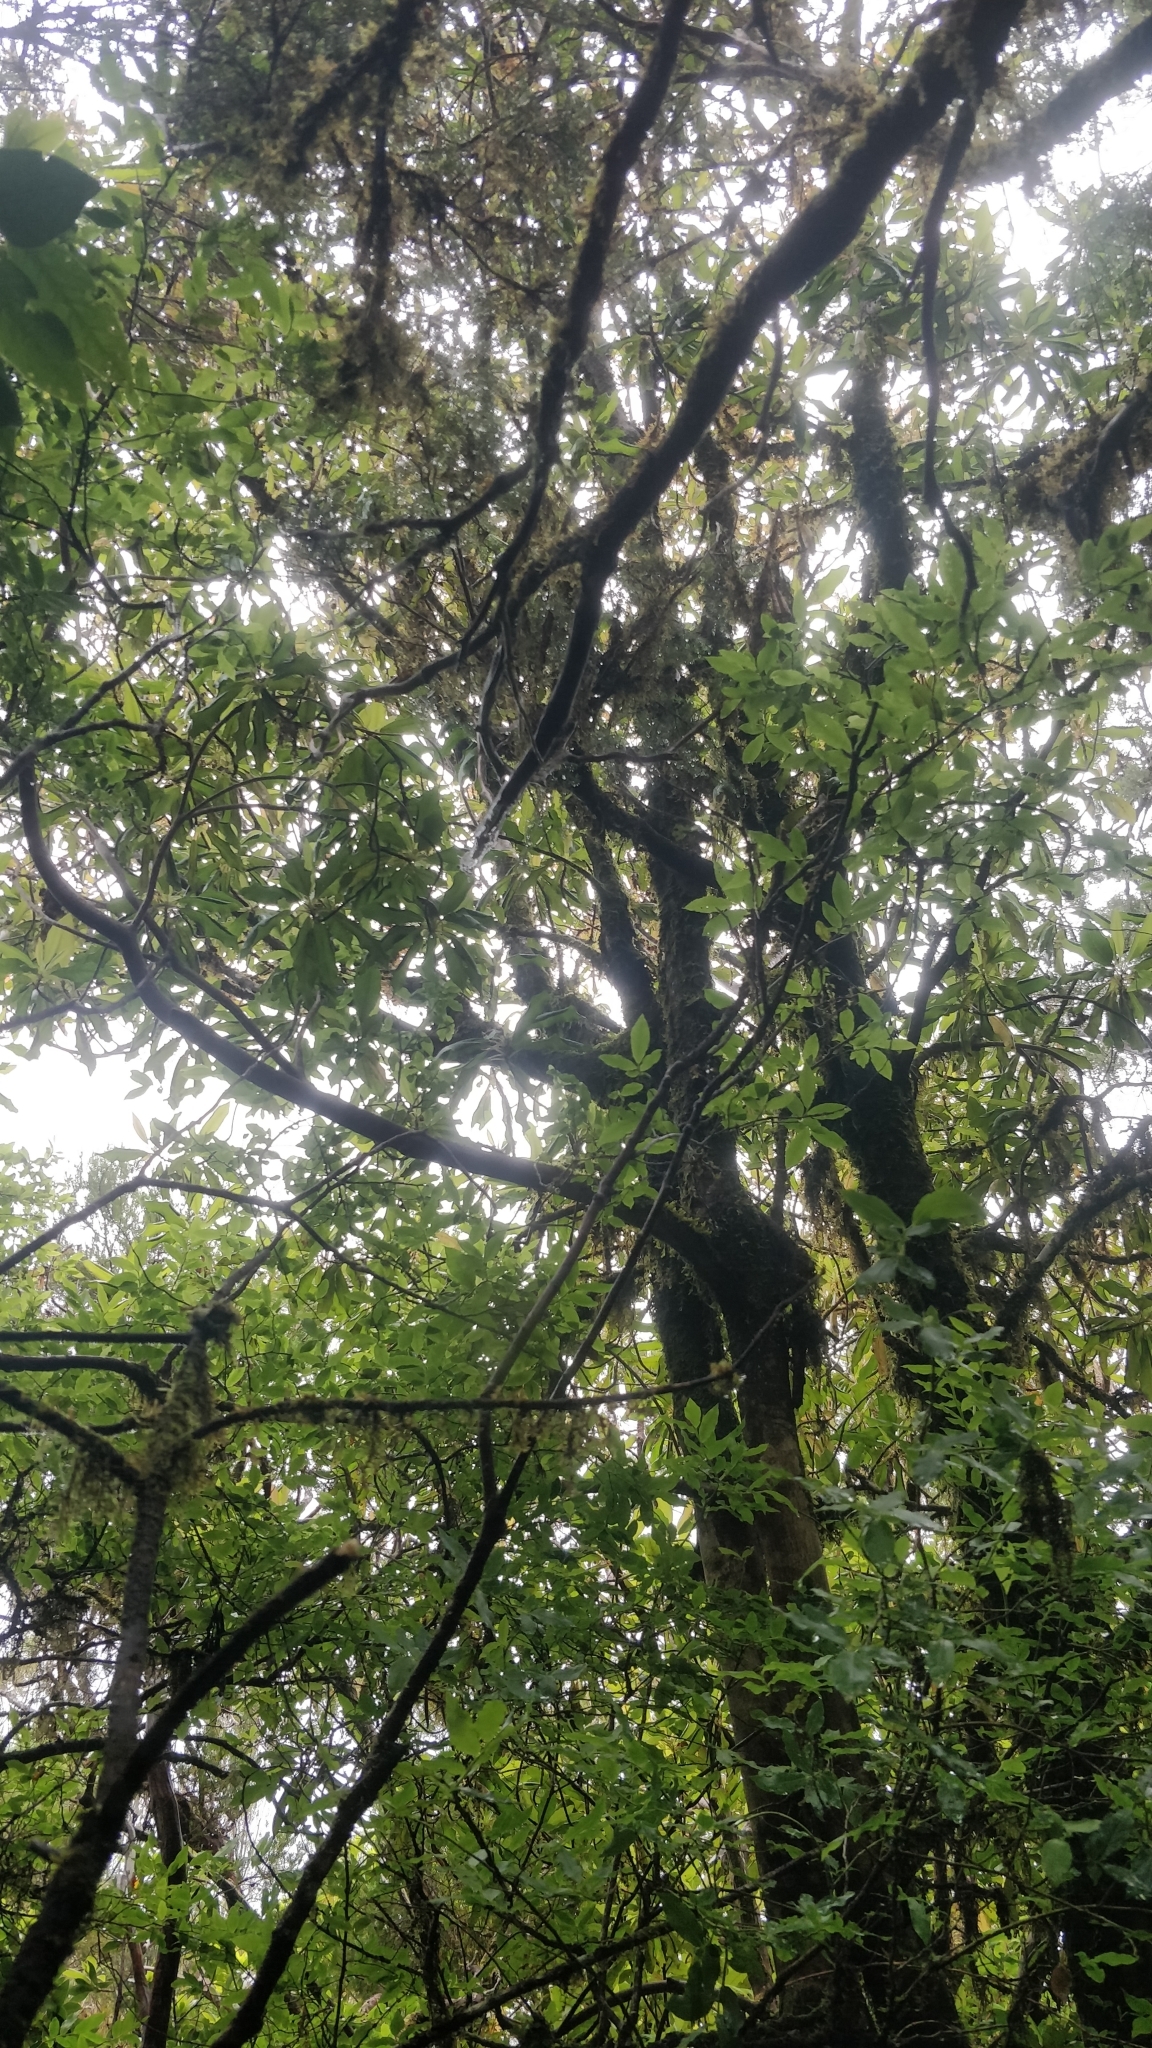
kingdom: Plantae
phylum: Tracheophyta
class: Magnoliopsida
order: Ericales
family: Ericaceae
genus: Vaccinium
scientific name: Vaccinium padifolium
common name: Madeiran blueberry
